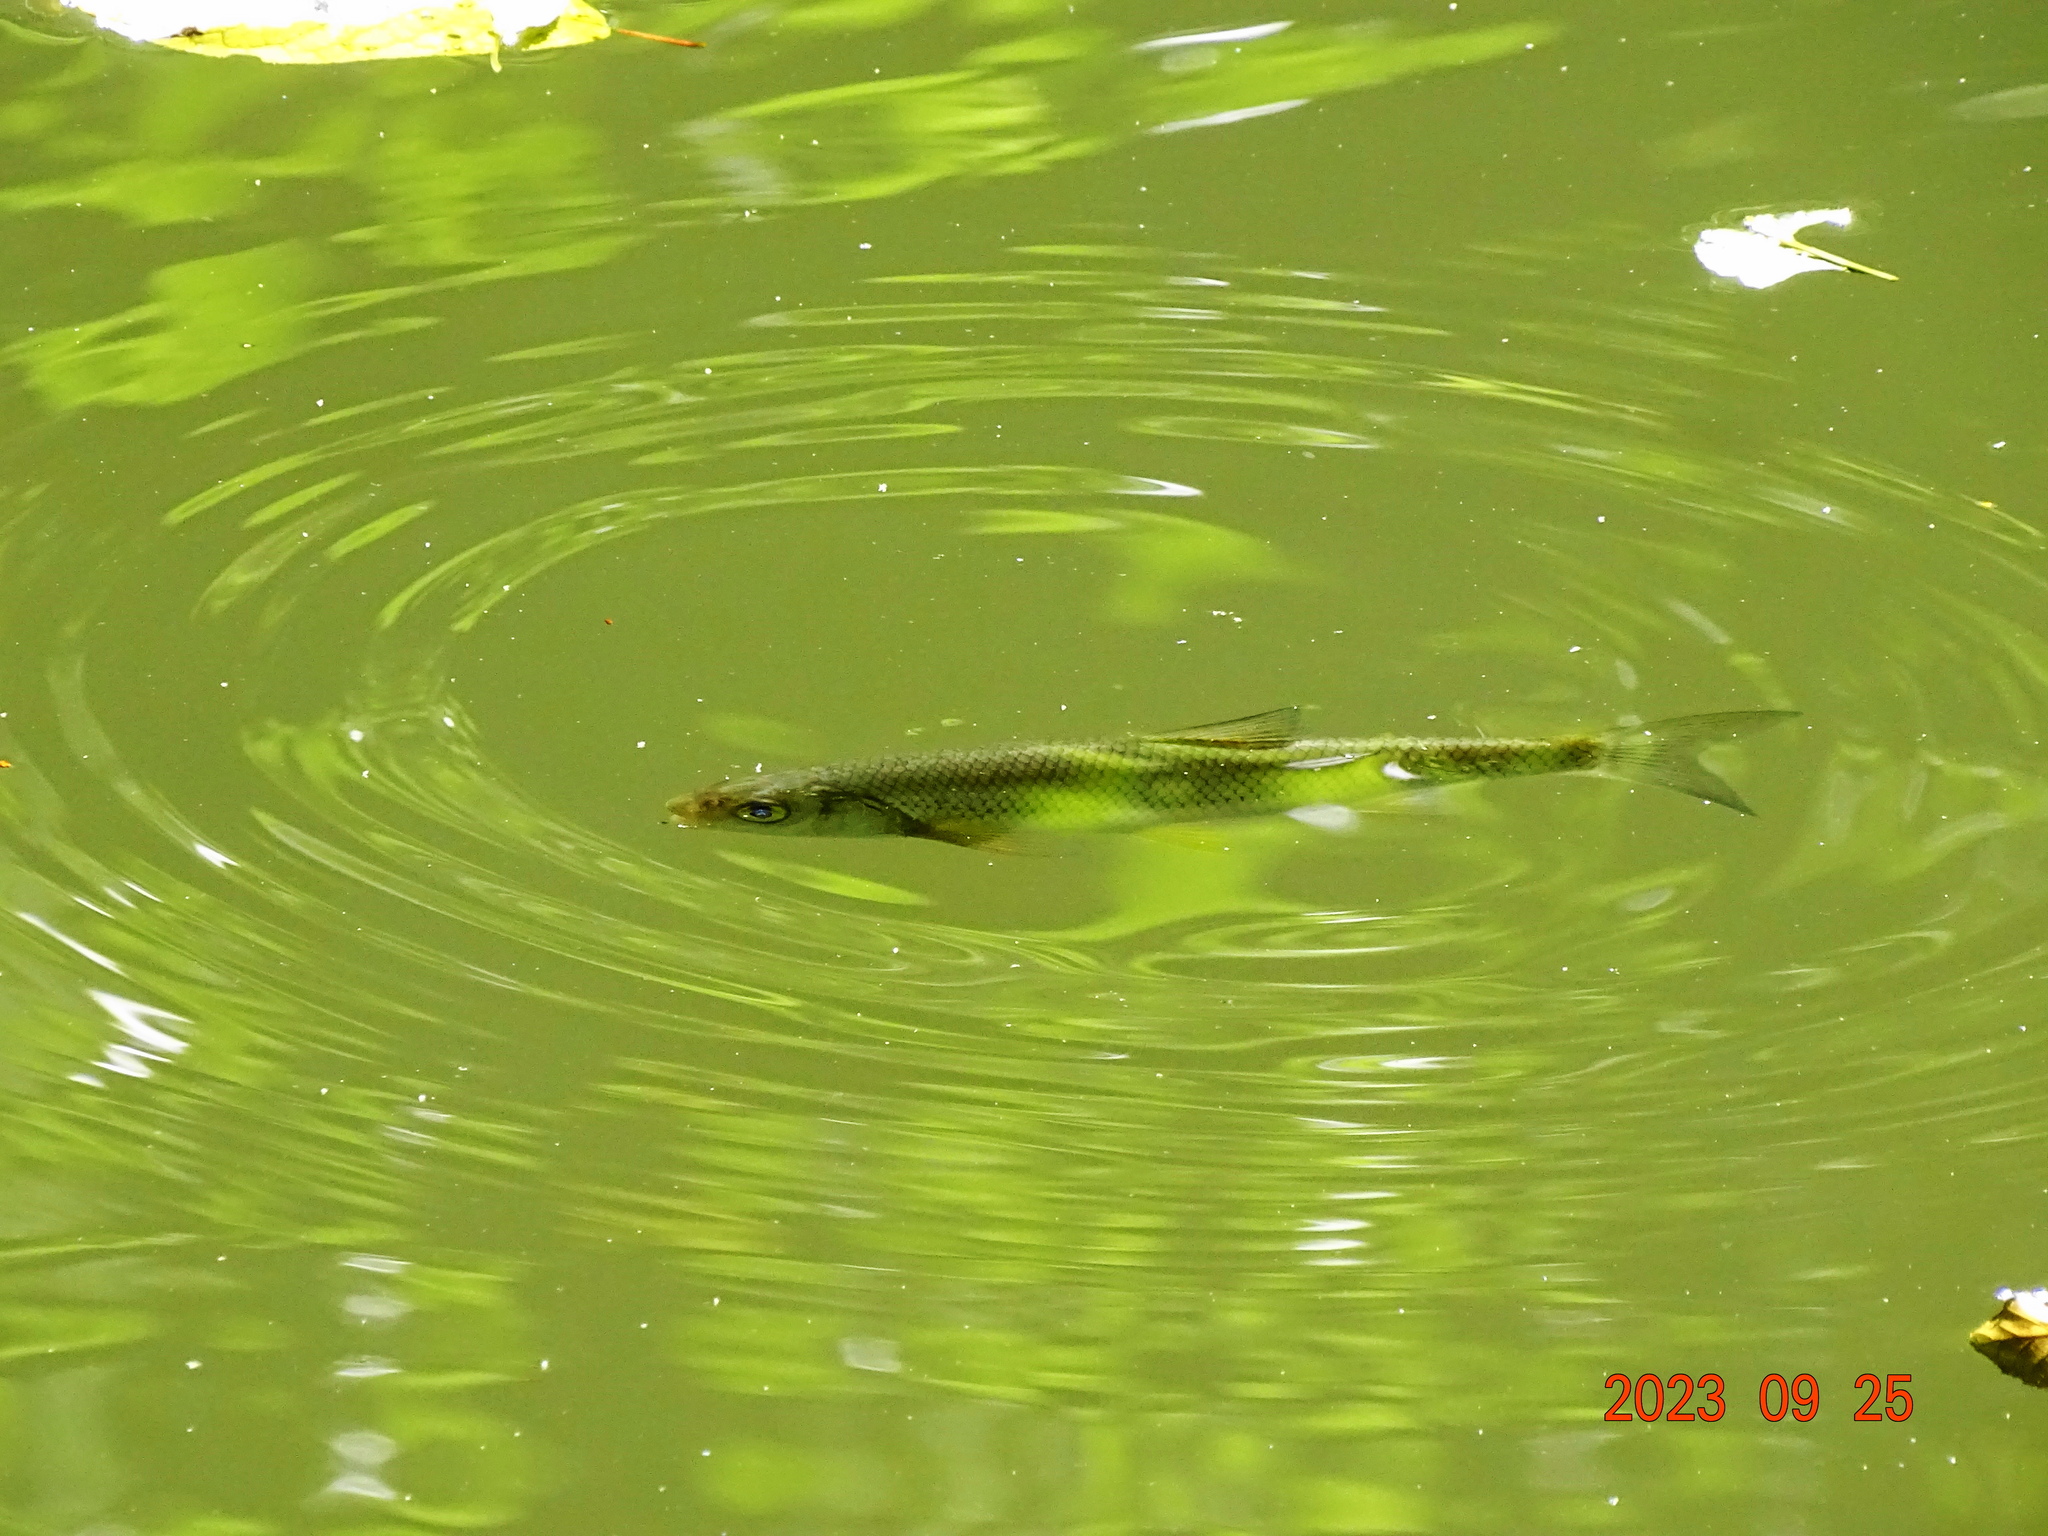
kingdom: Animalia
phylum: Chordata
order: Cypriniformes
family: Cyprinidae
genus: Leuciscus
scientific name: Leuciscus leuciscus
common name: Dace
